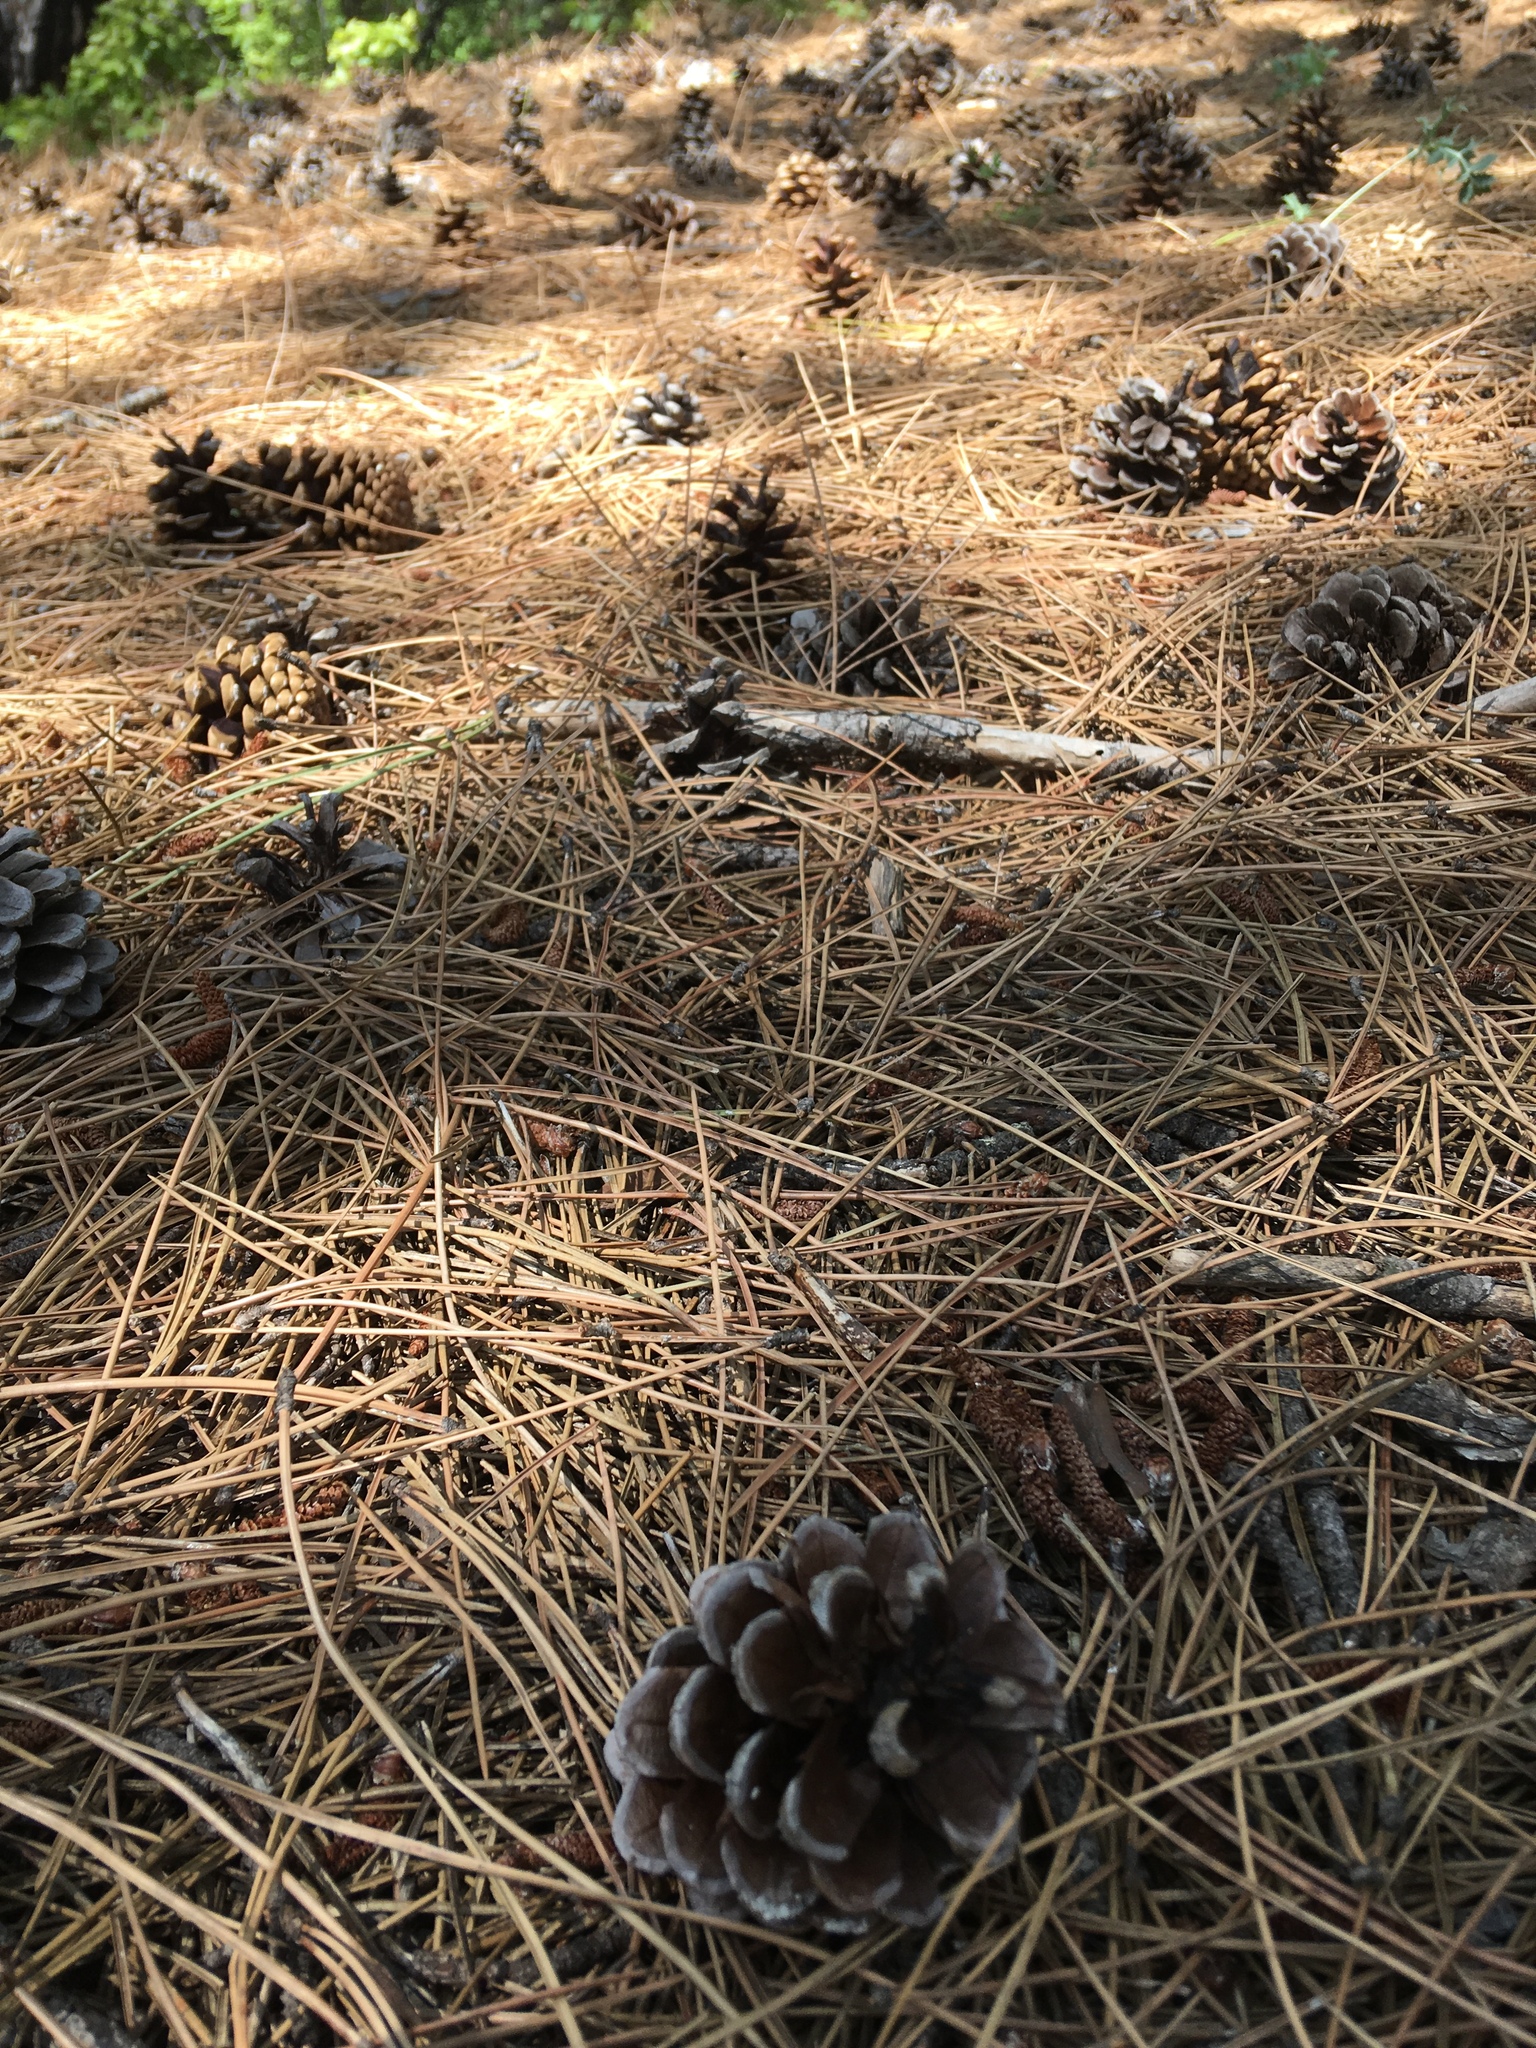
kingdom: Plantae
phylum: Tracheophyta
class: Pinopsida
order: Pinales
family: Pinaceae
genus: Pinus
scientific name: Pinus nigra
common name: Austrian pine
